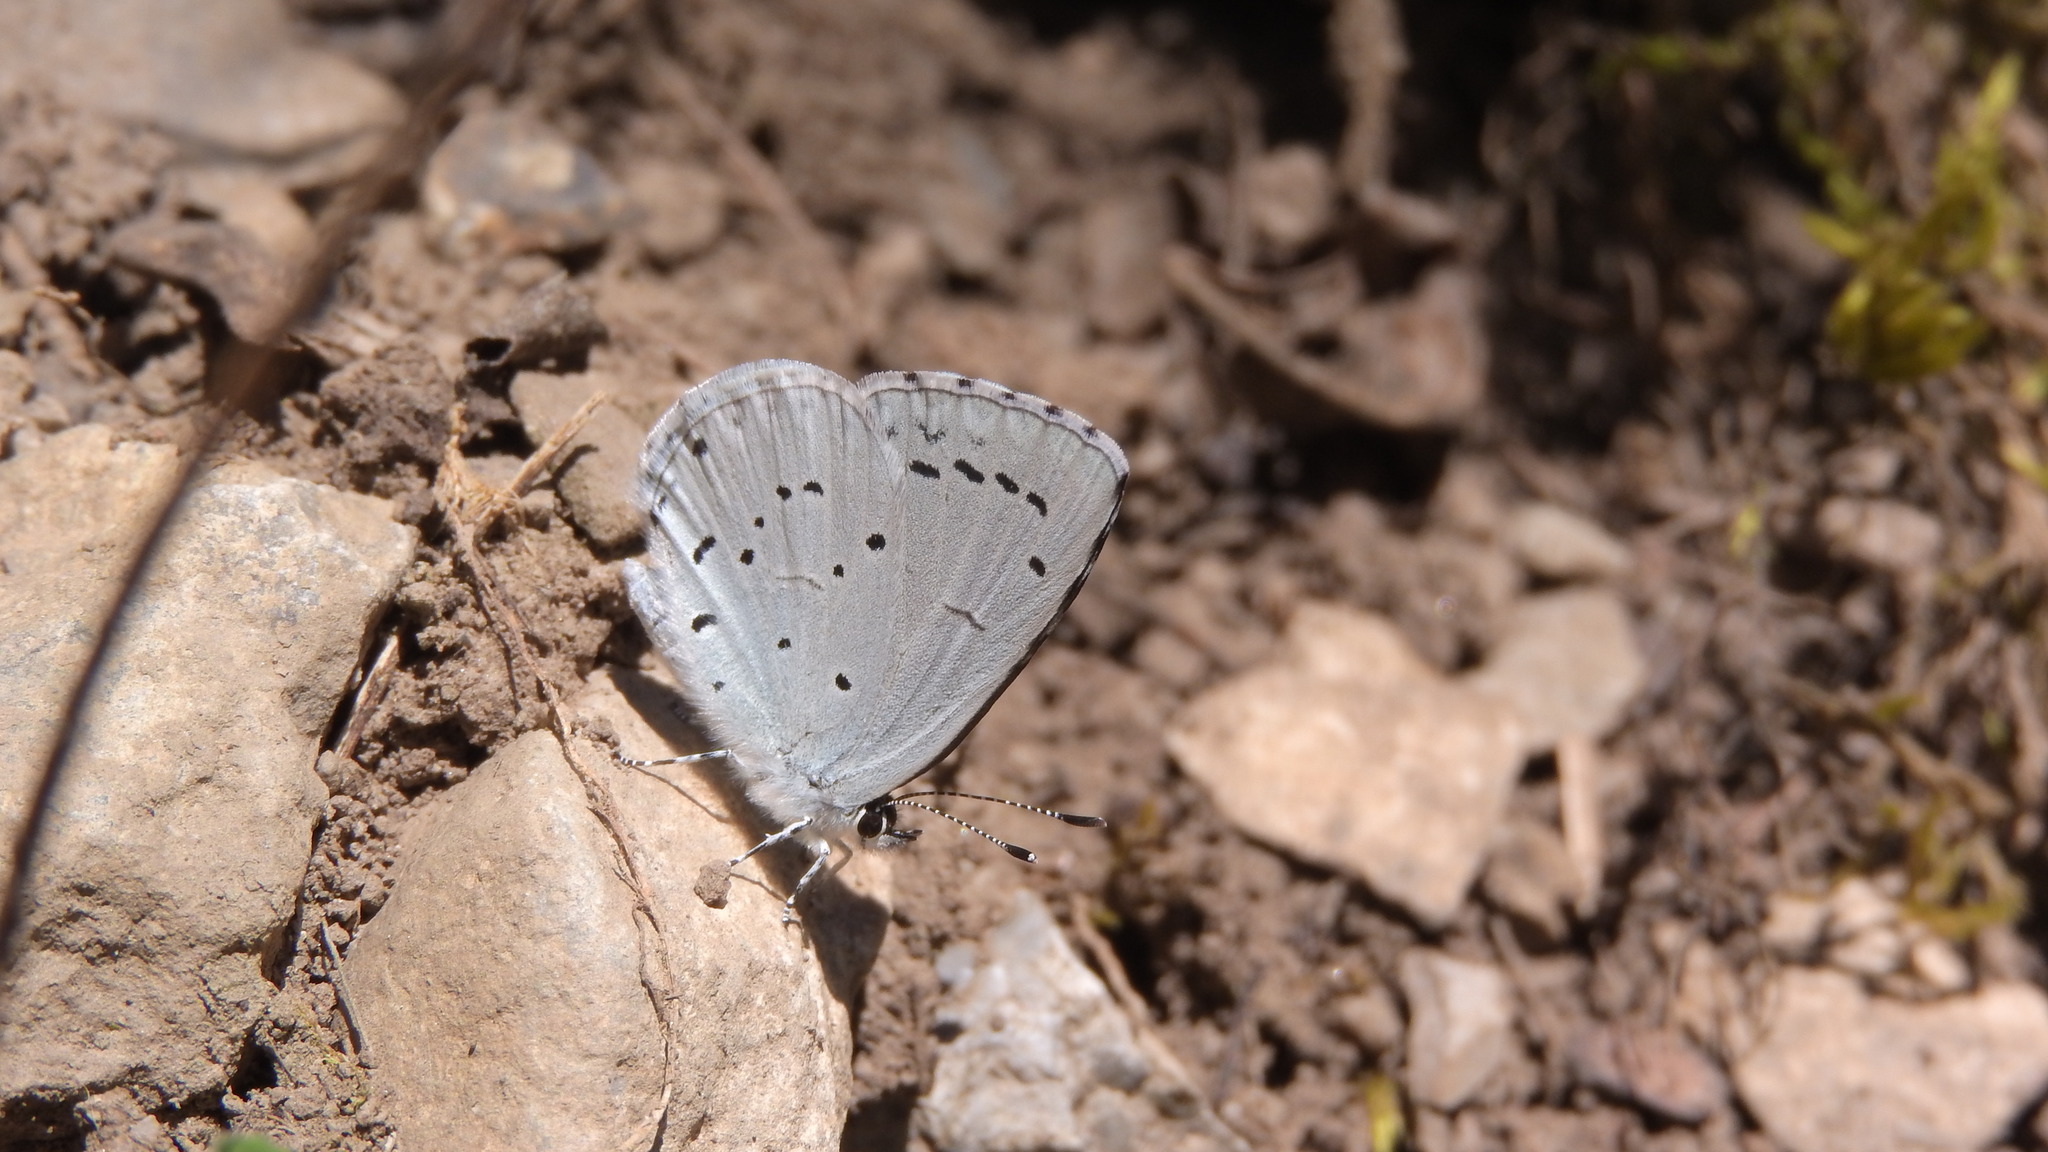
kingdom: Animalia
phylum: Arthropoda
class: Insecta
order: Lepidoptera
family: Lycaenidae
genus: Celastrina
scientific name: Celastrina argiolus
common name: Holly blue
